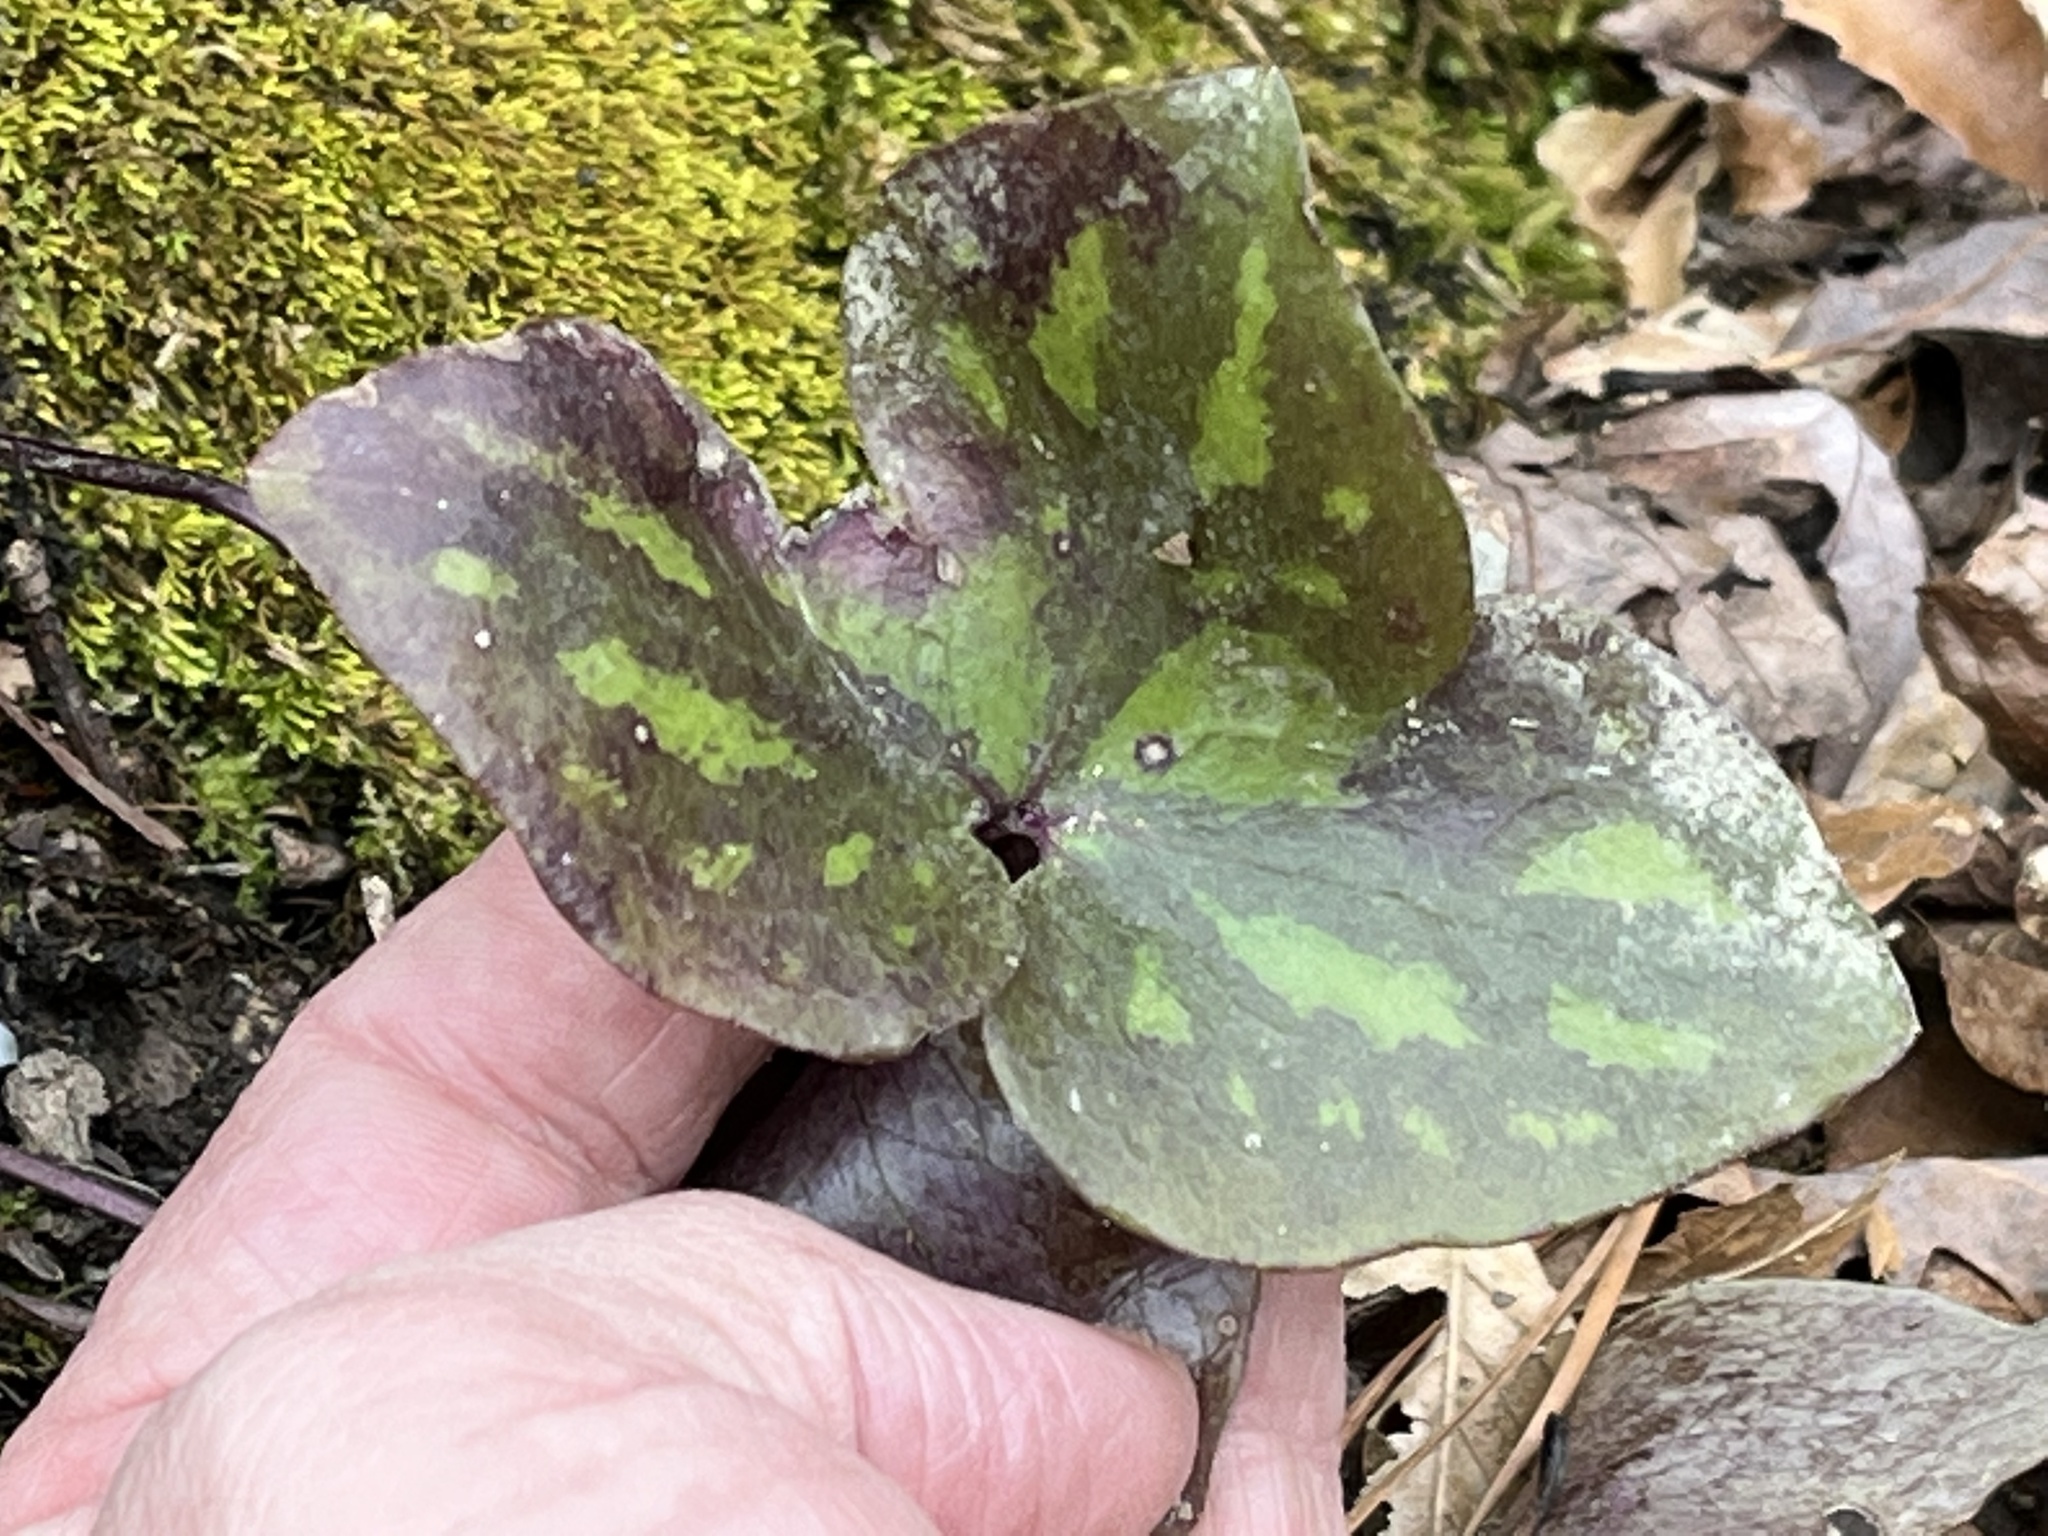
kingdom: Plantae
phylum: Tracheophyta
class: Magnoliopsida
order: Ranunculales
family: Ranunculaceae
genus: Hepatica
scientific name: Hepatica acutiloba
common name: Sharp-lobed hepatica
